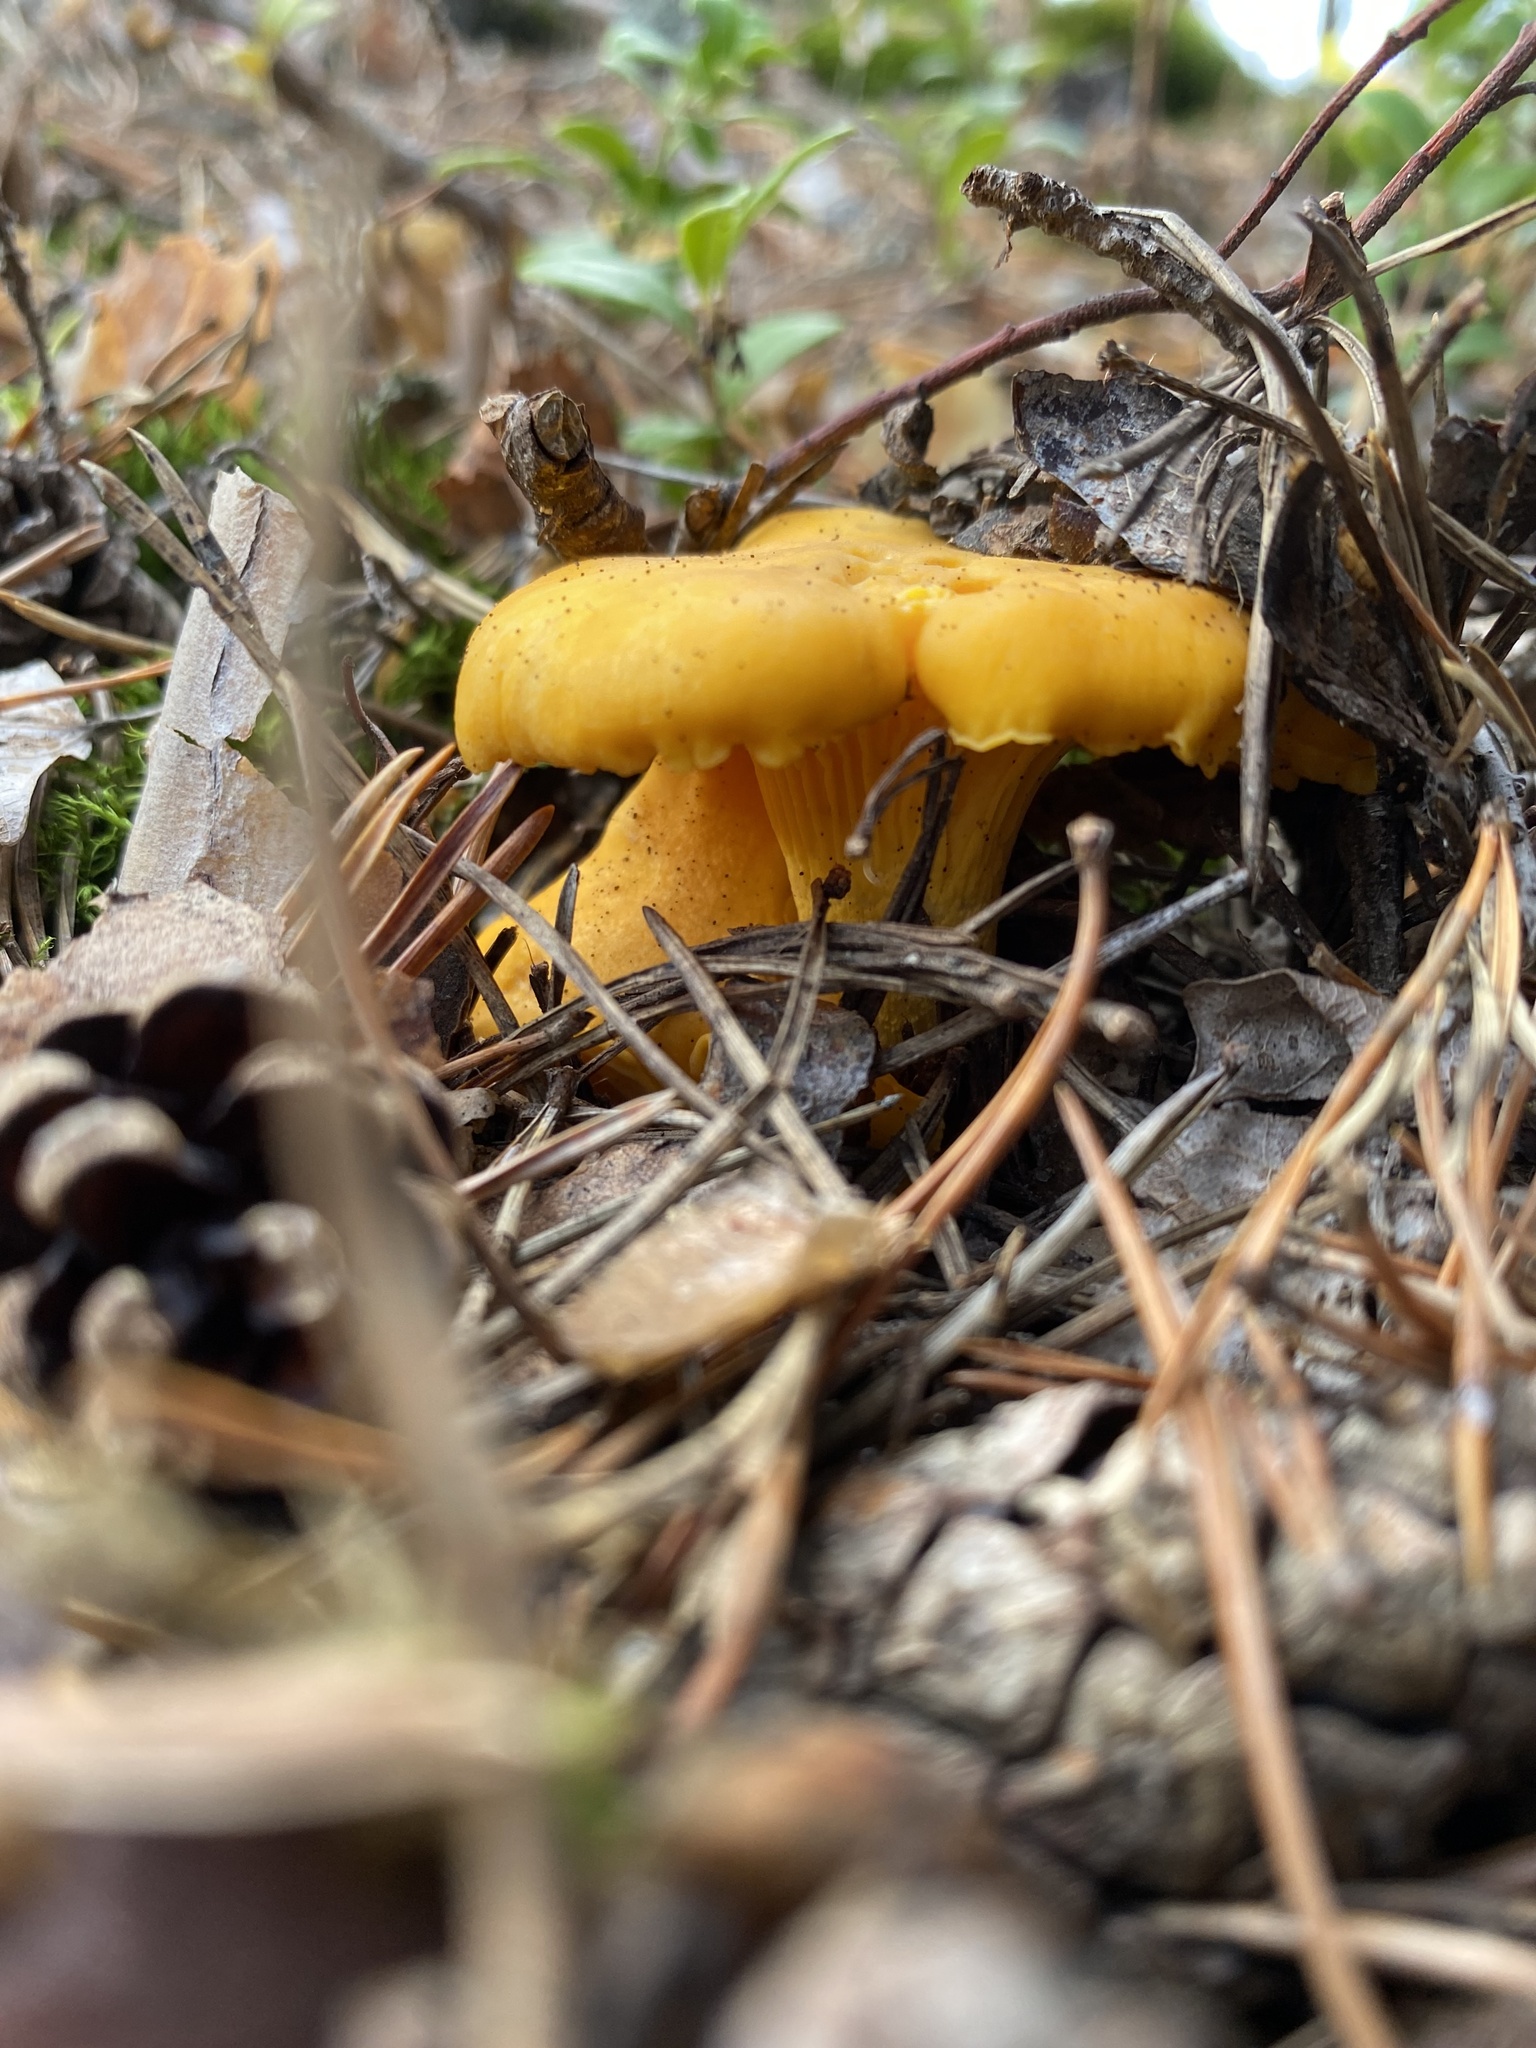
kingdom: Fungi
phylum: Basidiomycota
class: Agaricomycetes
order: Cantharellales
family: Hydnaceae
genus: Cantharellus
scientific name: Cantharellus cibarius
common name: Chanterelle
